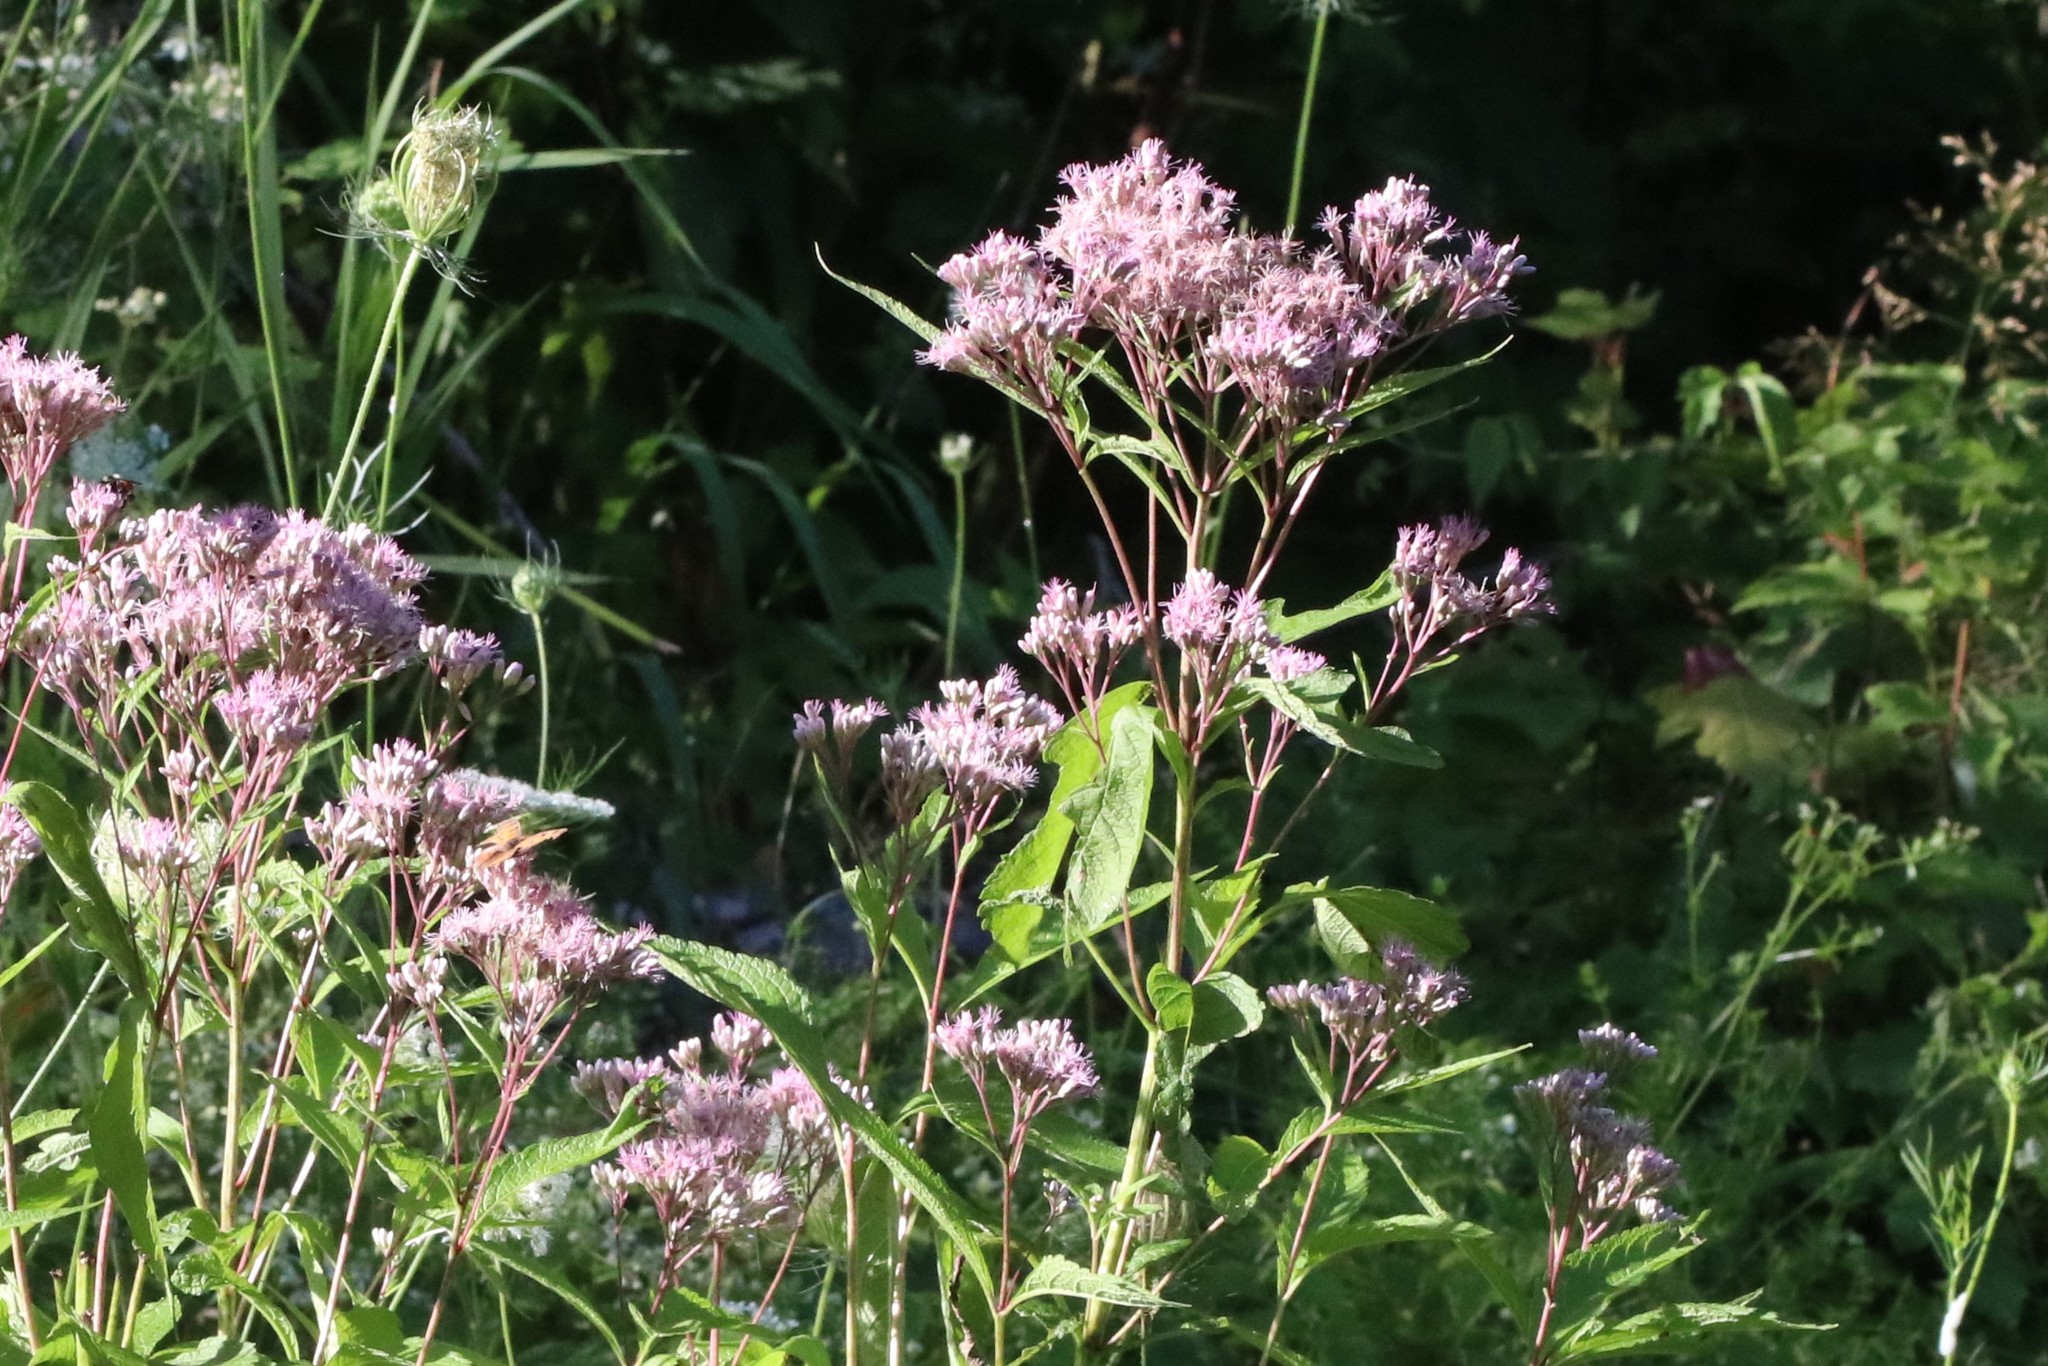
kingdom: Plantae
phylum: Tracheophyta
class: Magnoliopsida
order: Asterales
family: Asteraceae
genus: Eutrochium
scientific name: Eutrochium maculatum
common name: Spotted joe pye weed
